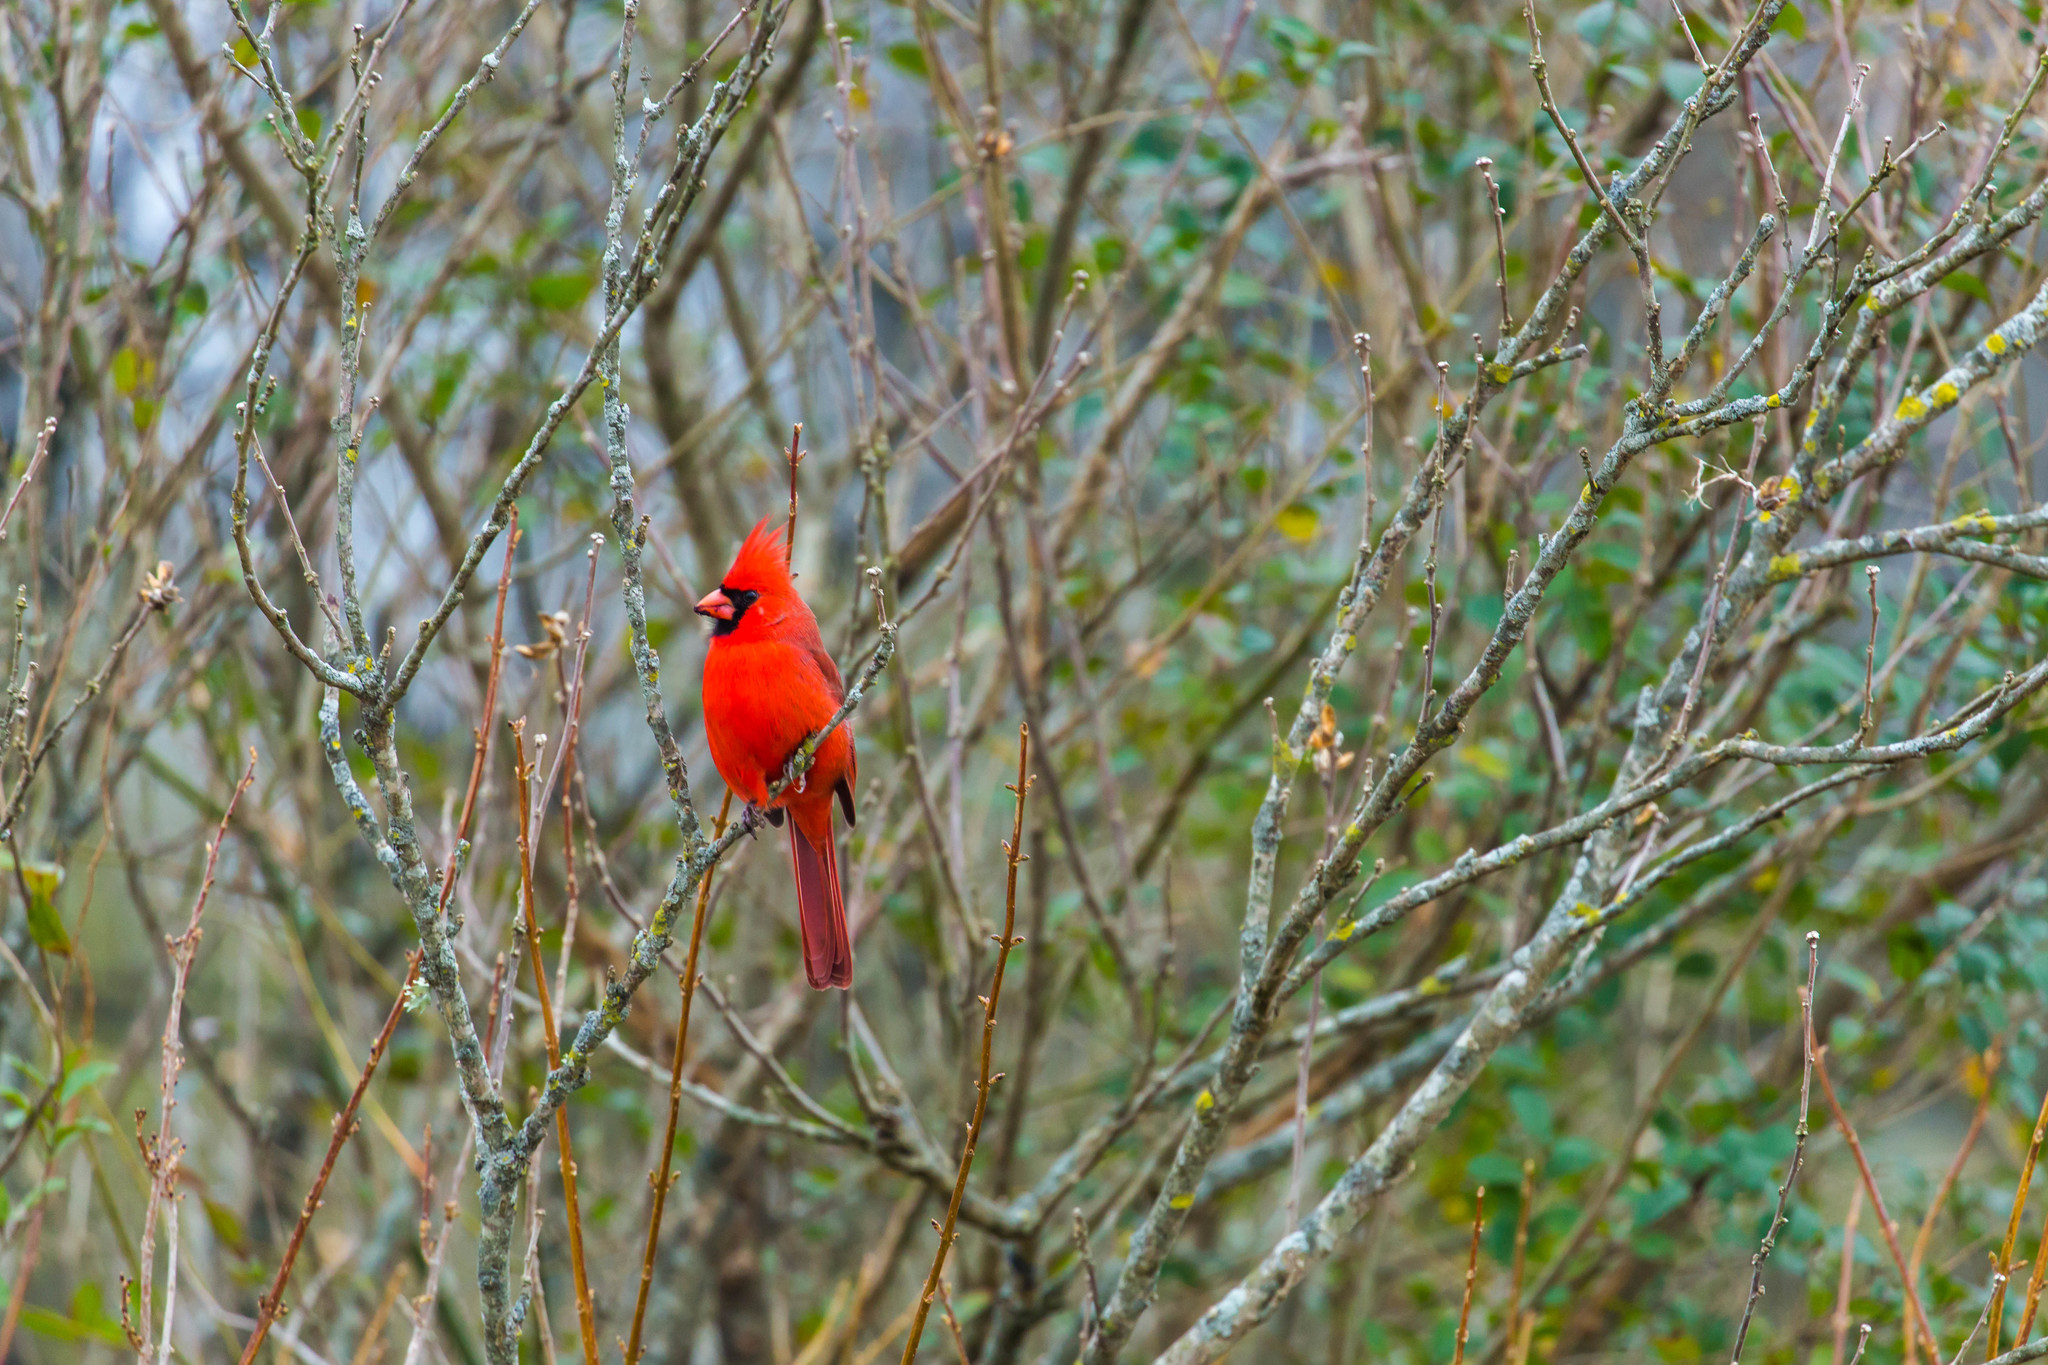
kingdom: Animalia
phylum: Chordata
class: Aves
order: Passeriformes
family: Cardinalidae
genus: Cardinalis
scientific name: Cardinalis cardinalis
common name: Northern cardinal
